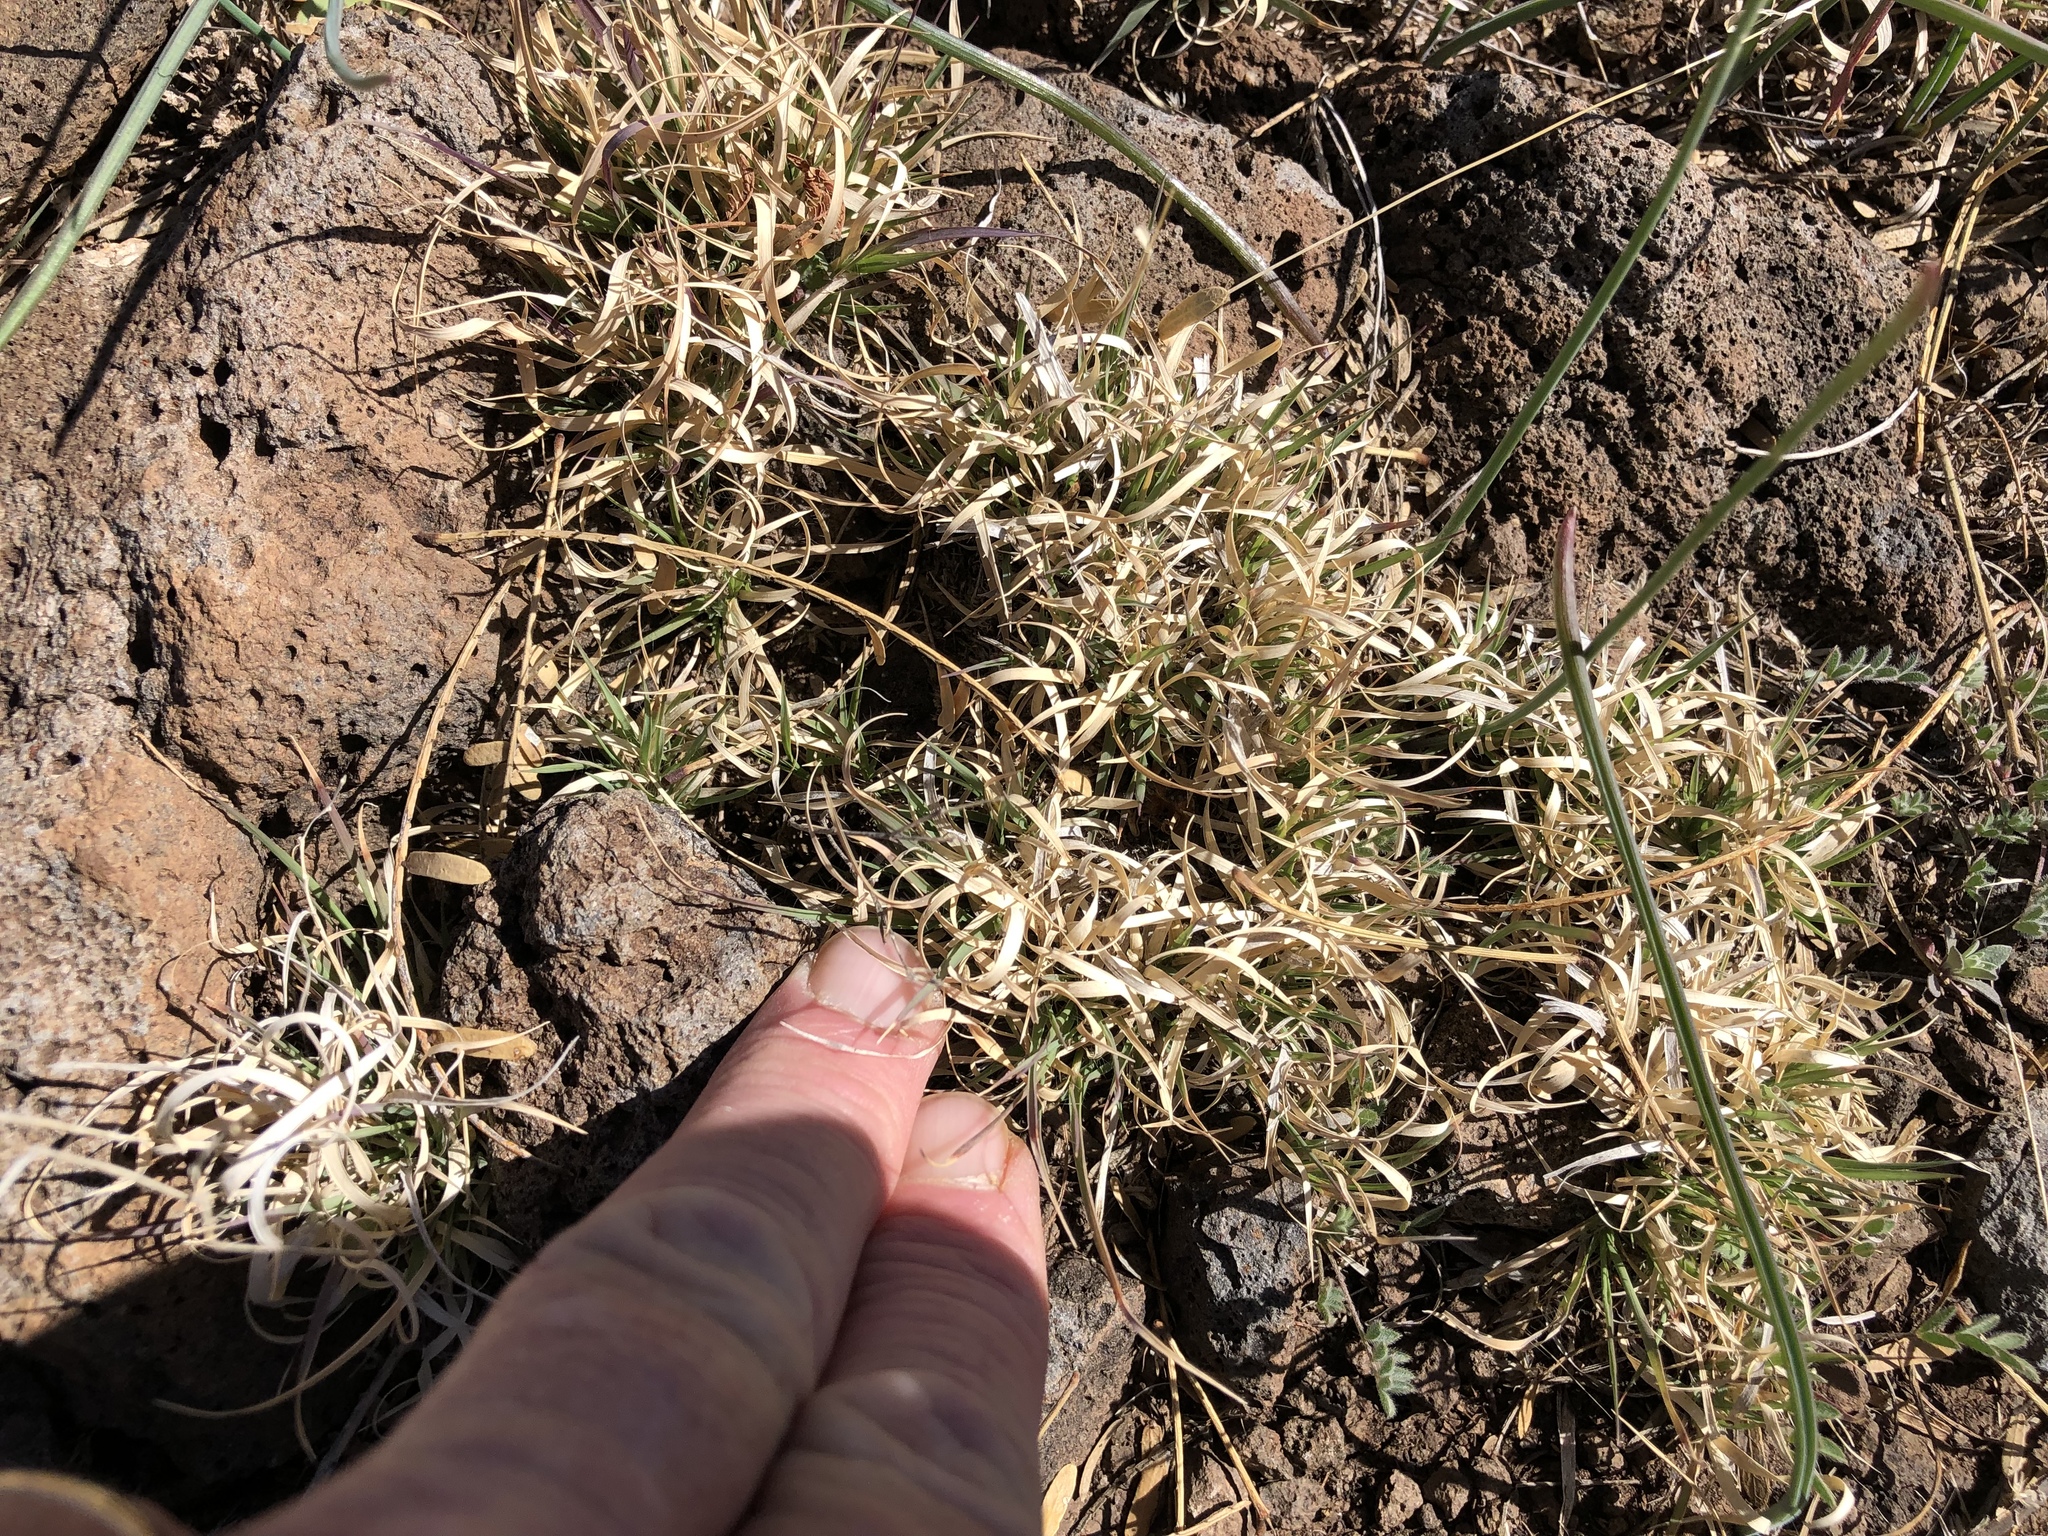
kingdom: Plantae
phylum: Tracheophyta
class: Liliopsida
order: Poales
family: Poaceae
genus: Hilaria
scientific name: Hilaria belangeri
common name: Curly-mesquite
